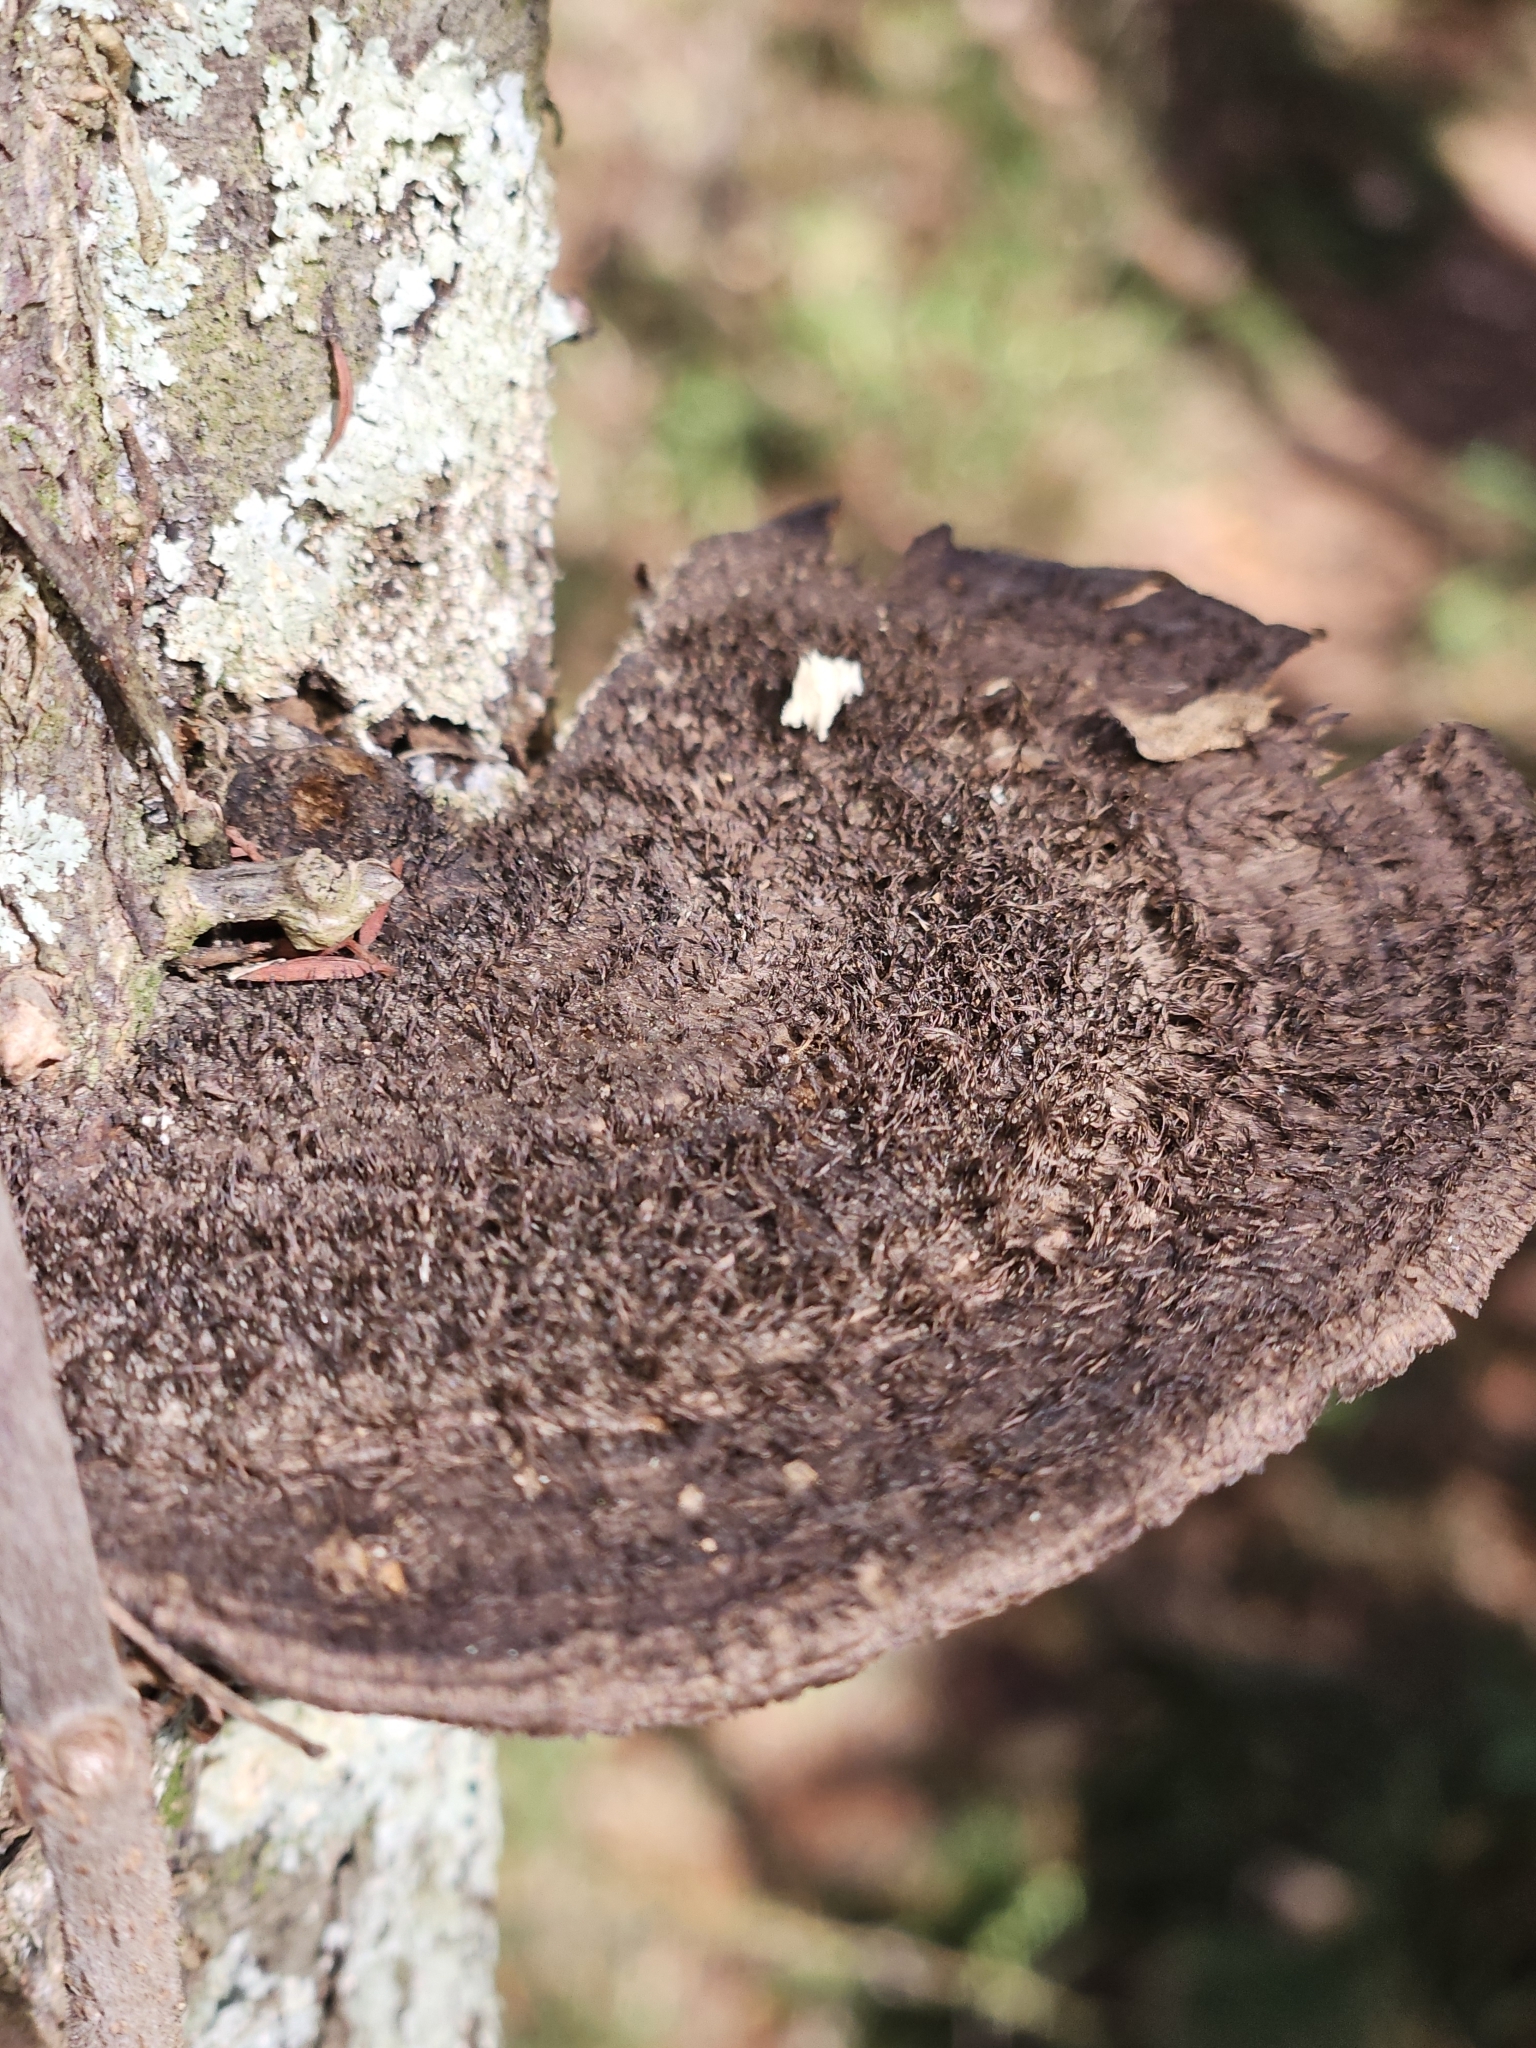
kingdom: Fungi
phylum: Basidiomycota
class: Agaricomycetes
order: Polyporales
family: Cerrenaceae
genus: Cerrena
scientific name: Cerrena hydnoides
